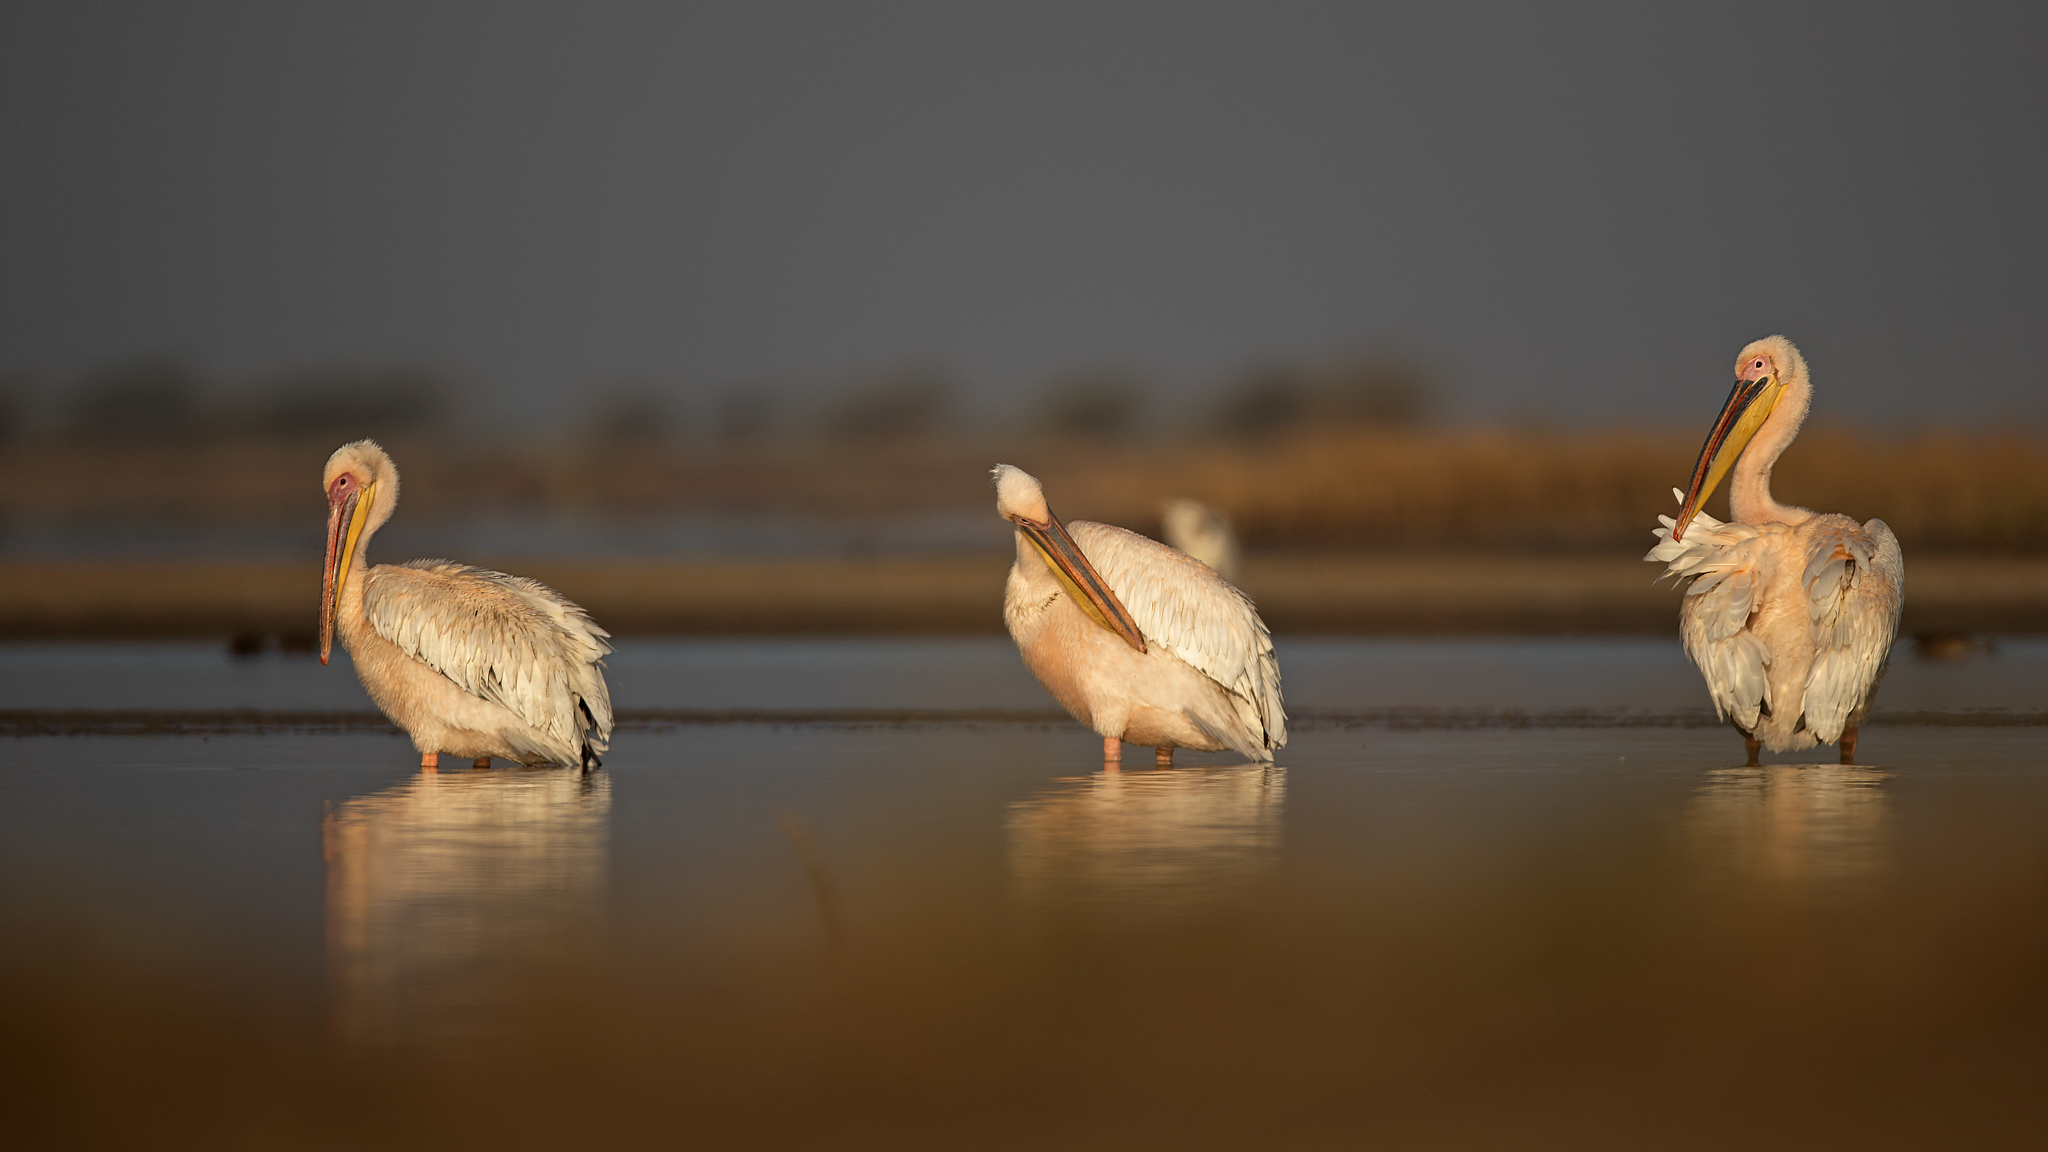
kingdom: Animalia
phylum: Chordata
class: Aves
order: Pelecaniformes
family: Pelecanidae
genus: Pelecanus
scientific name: Pelecanus onocrotalus
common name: Great white pelican
